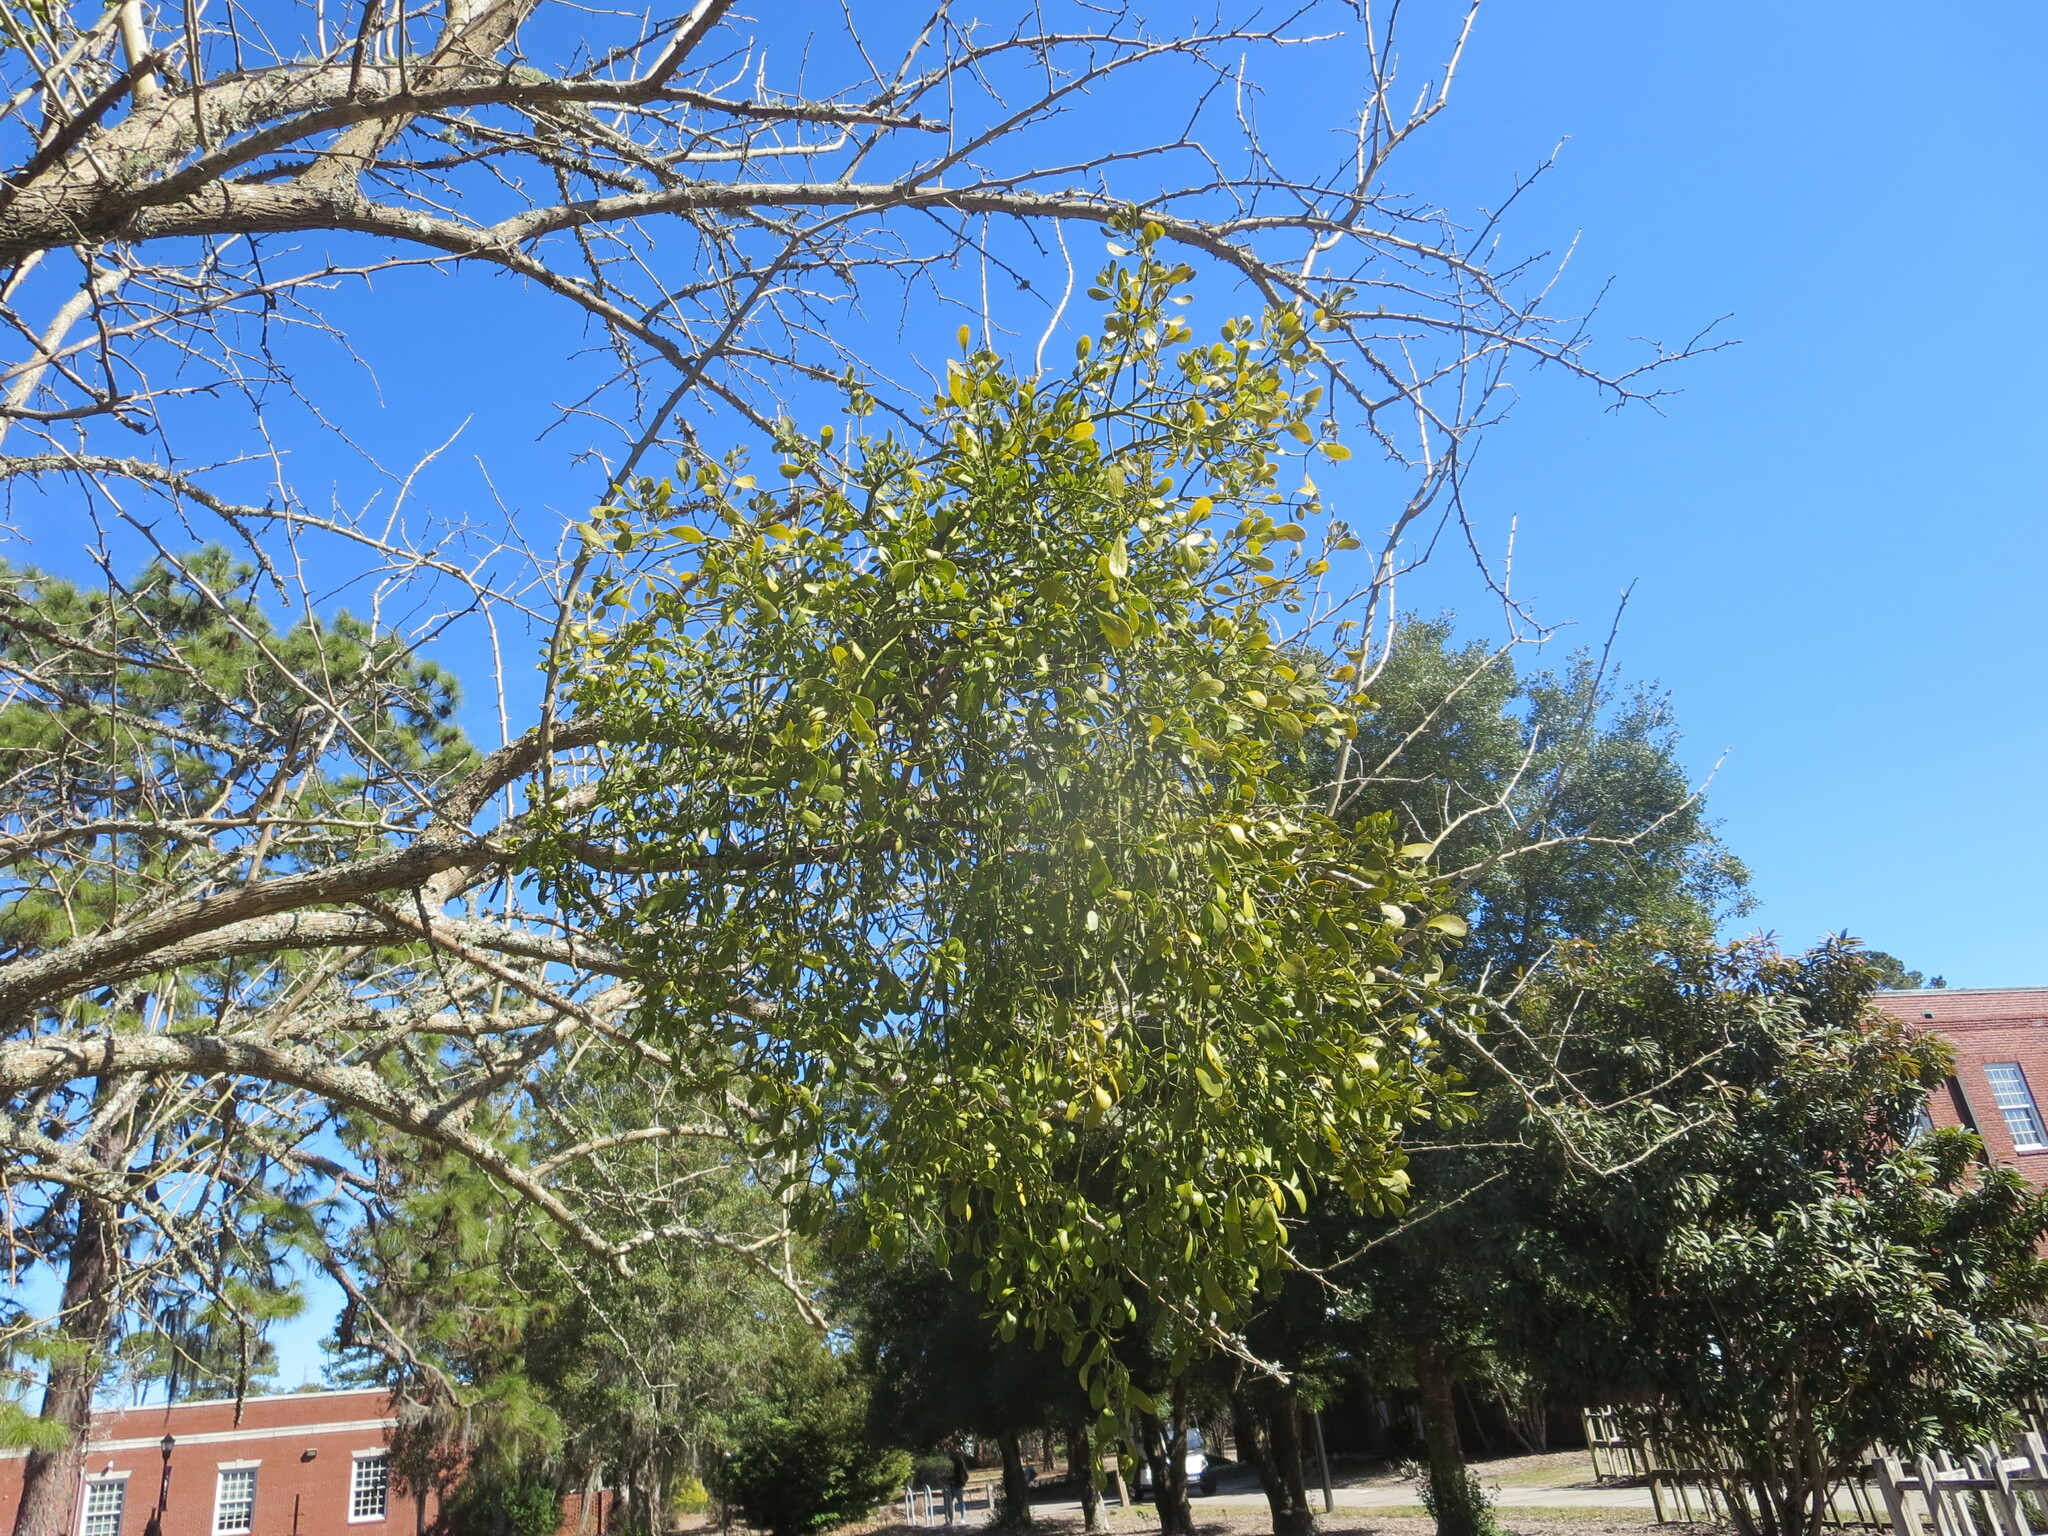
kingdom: Plantae
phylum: Tracheophyta
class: Magnoliopsida
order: Santalales
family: Viscaceae
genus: Phoradendron
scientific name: Phoradendron leucarpum
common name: Pacific mistletoe
